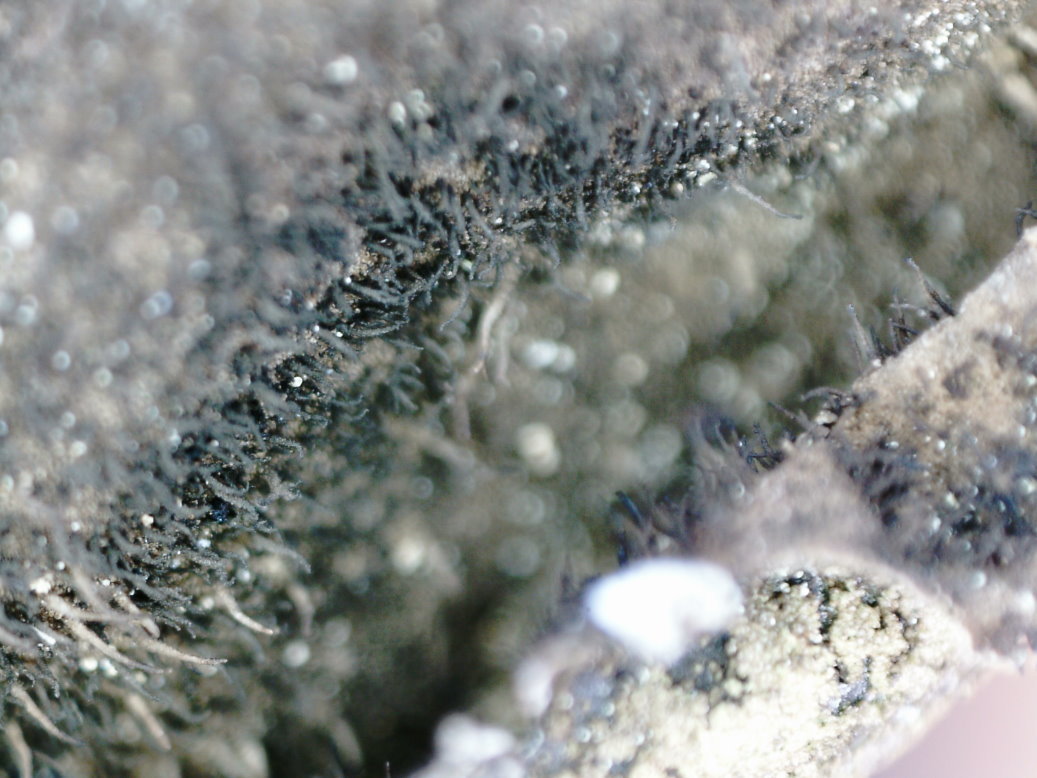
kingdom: Fungi
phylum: Ascomycota
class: Lecanoromycetes
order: Umbilicariales
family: Umbilicariaceae
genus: Umbilicaria
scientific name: Umbilicaria hirsuta
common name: Granulating rocktripe lichen
